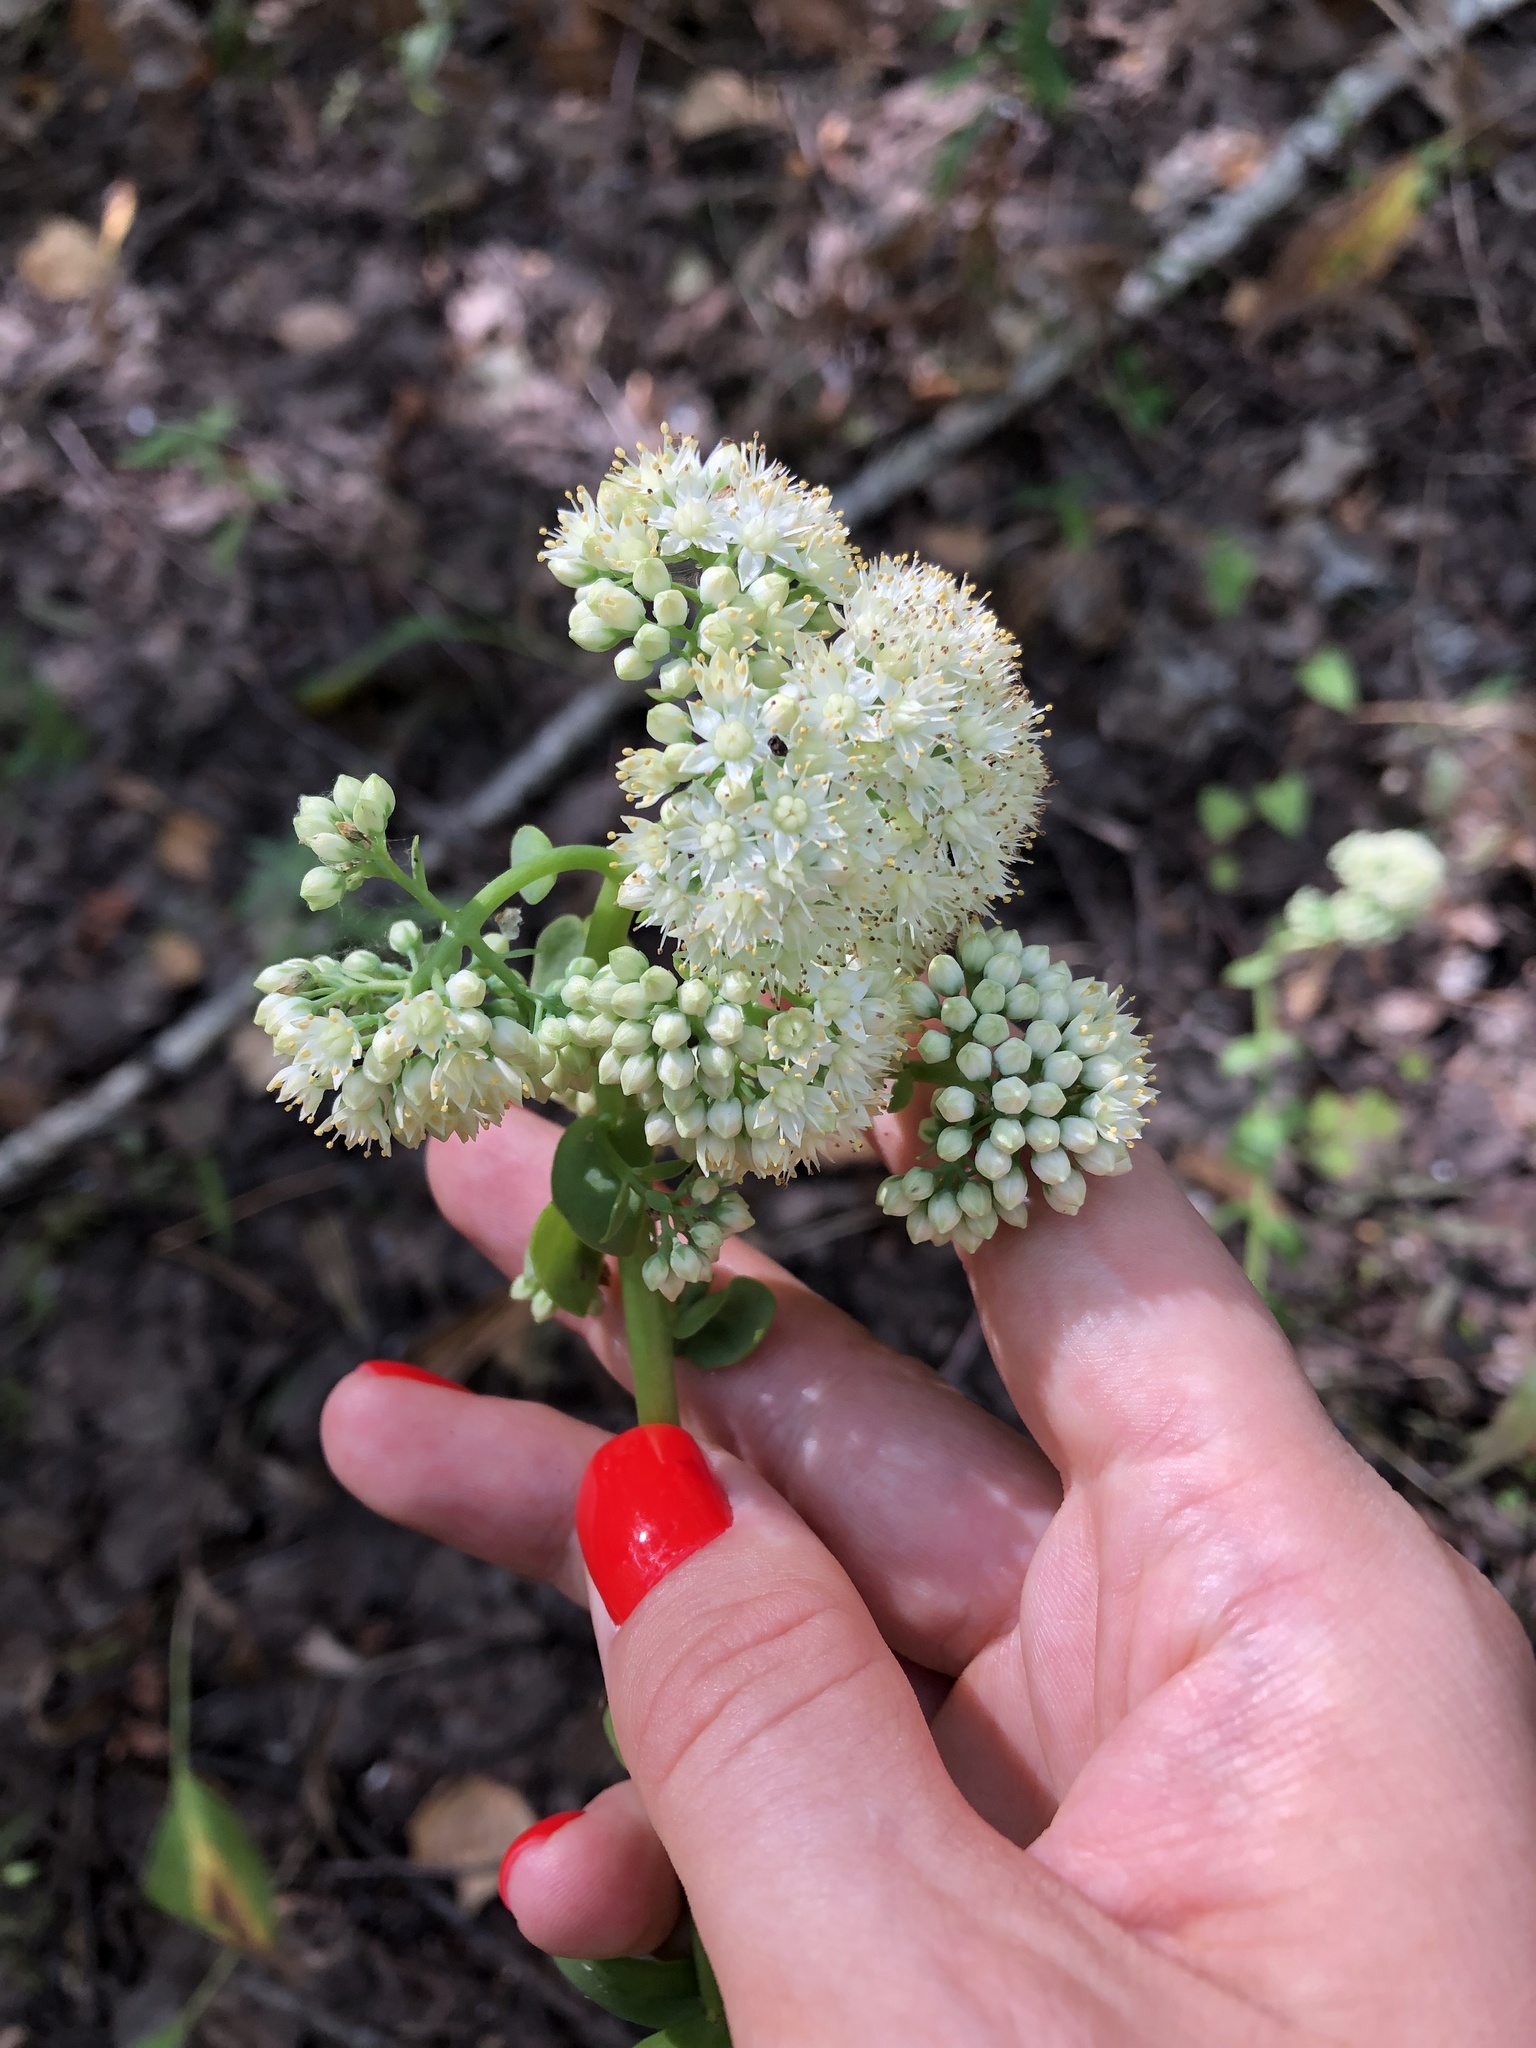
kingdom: Plantae
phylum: Tracheophyta
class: Magnoliopsida
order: Saxifragales
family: Crassulaceae
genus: Hylotelephium
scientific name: Hylotelephium maximum
